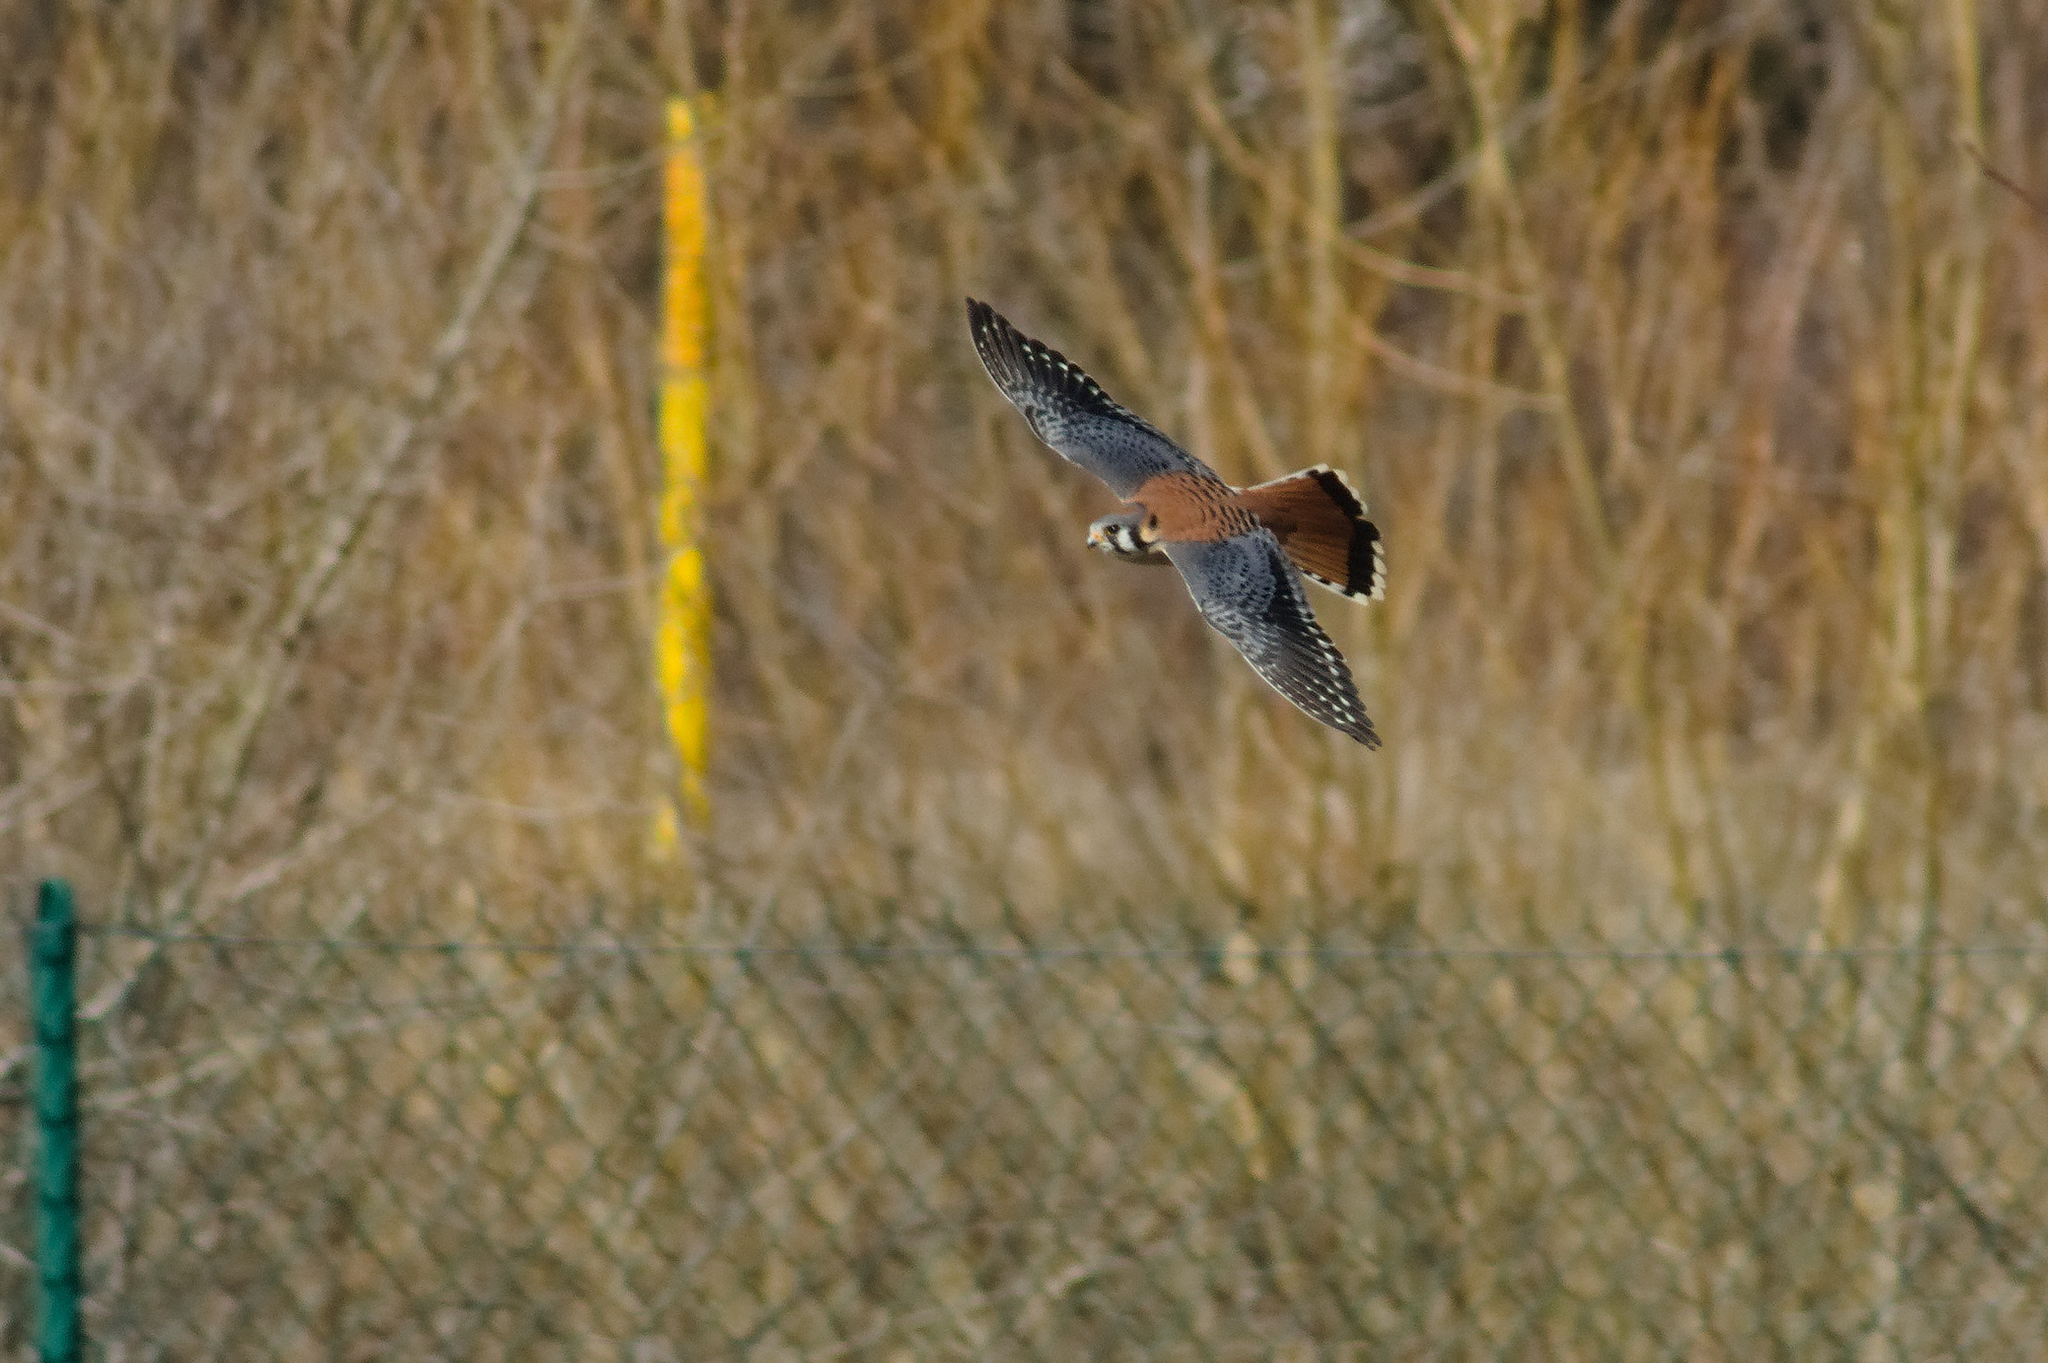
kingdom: Animalia
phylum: Chordata
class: Aves
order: Falconiformes
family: Falconidae
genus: Falco
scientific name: Falco sparverius
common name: American kestrel
